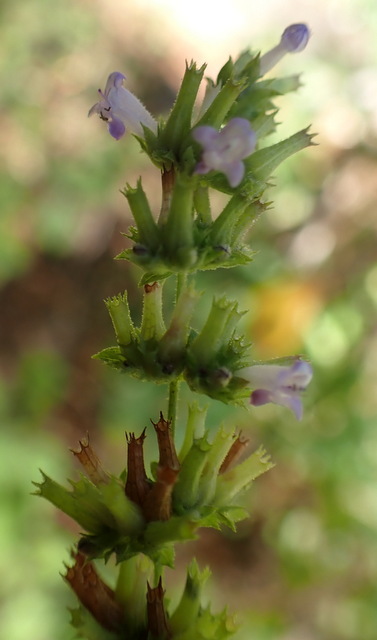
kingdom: Plantae
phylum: Tracheophyta
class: Magnoliopsida
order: Lamiales
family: Lamiaceae
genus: Cantinoa
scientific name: Cantinoa mutabilis
